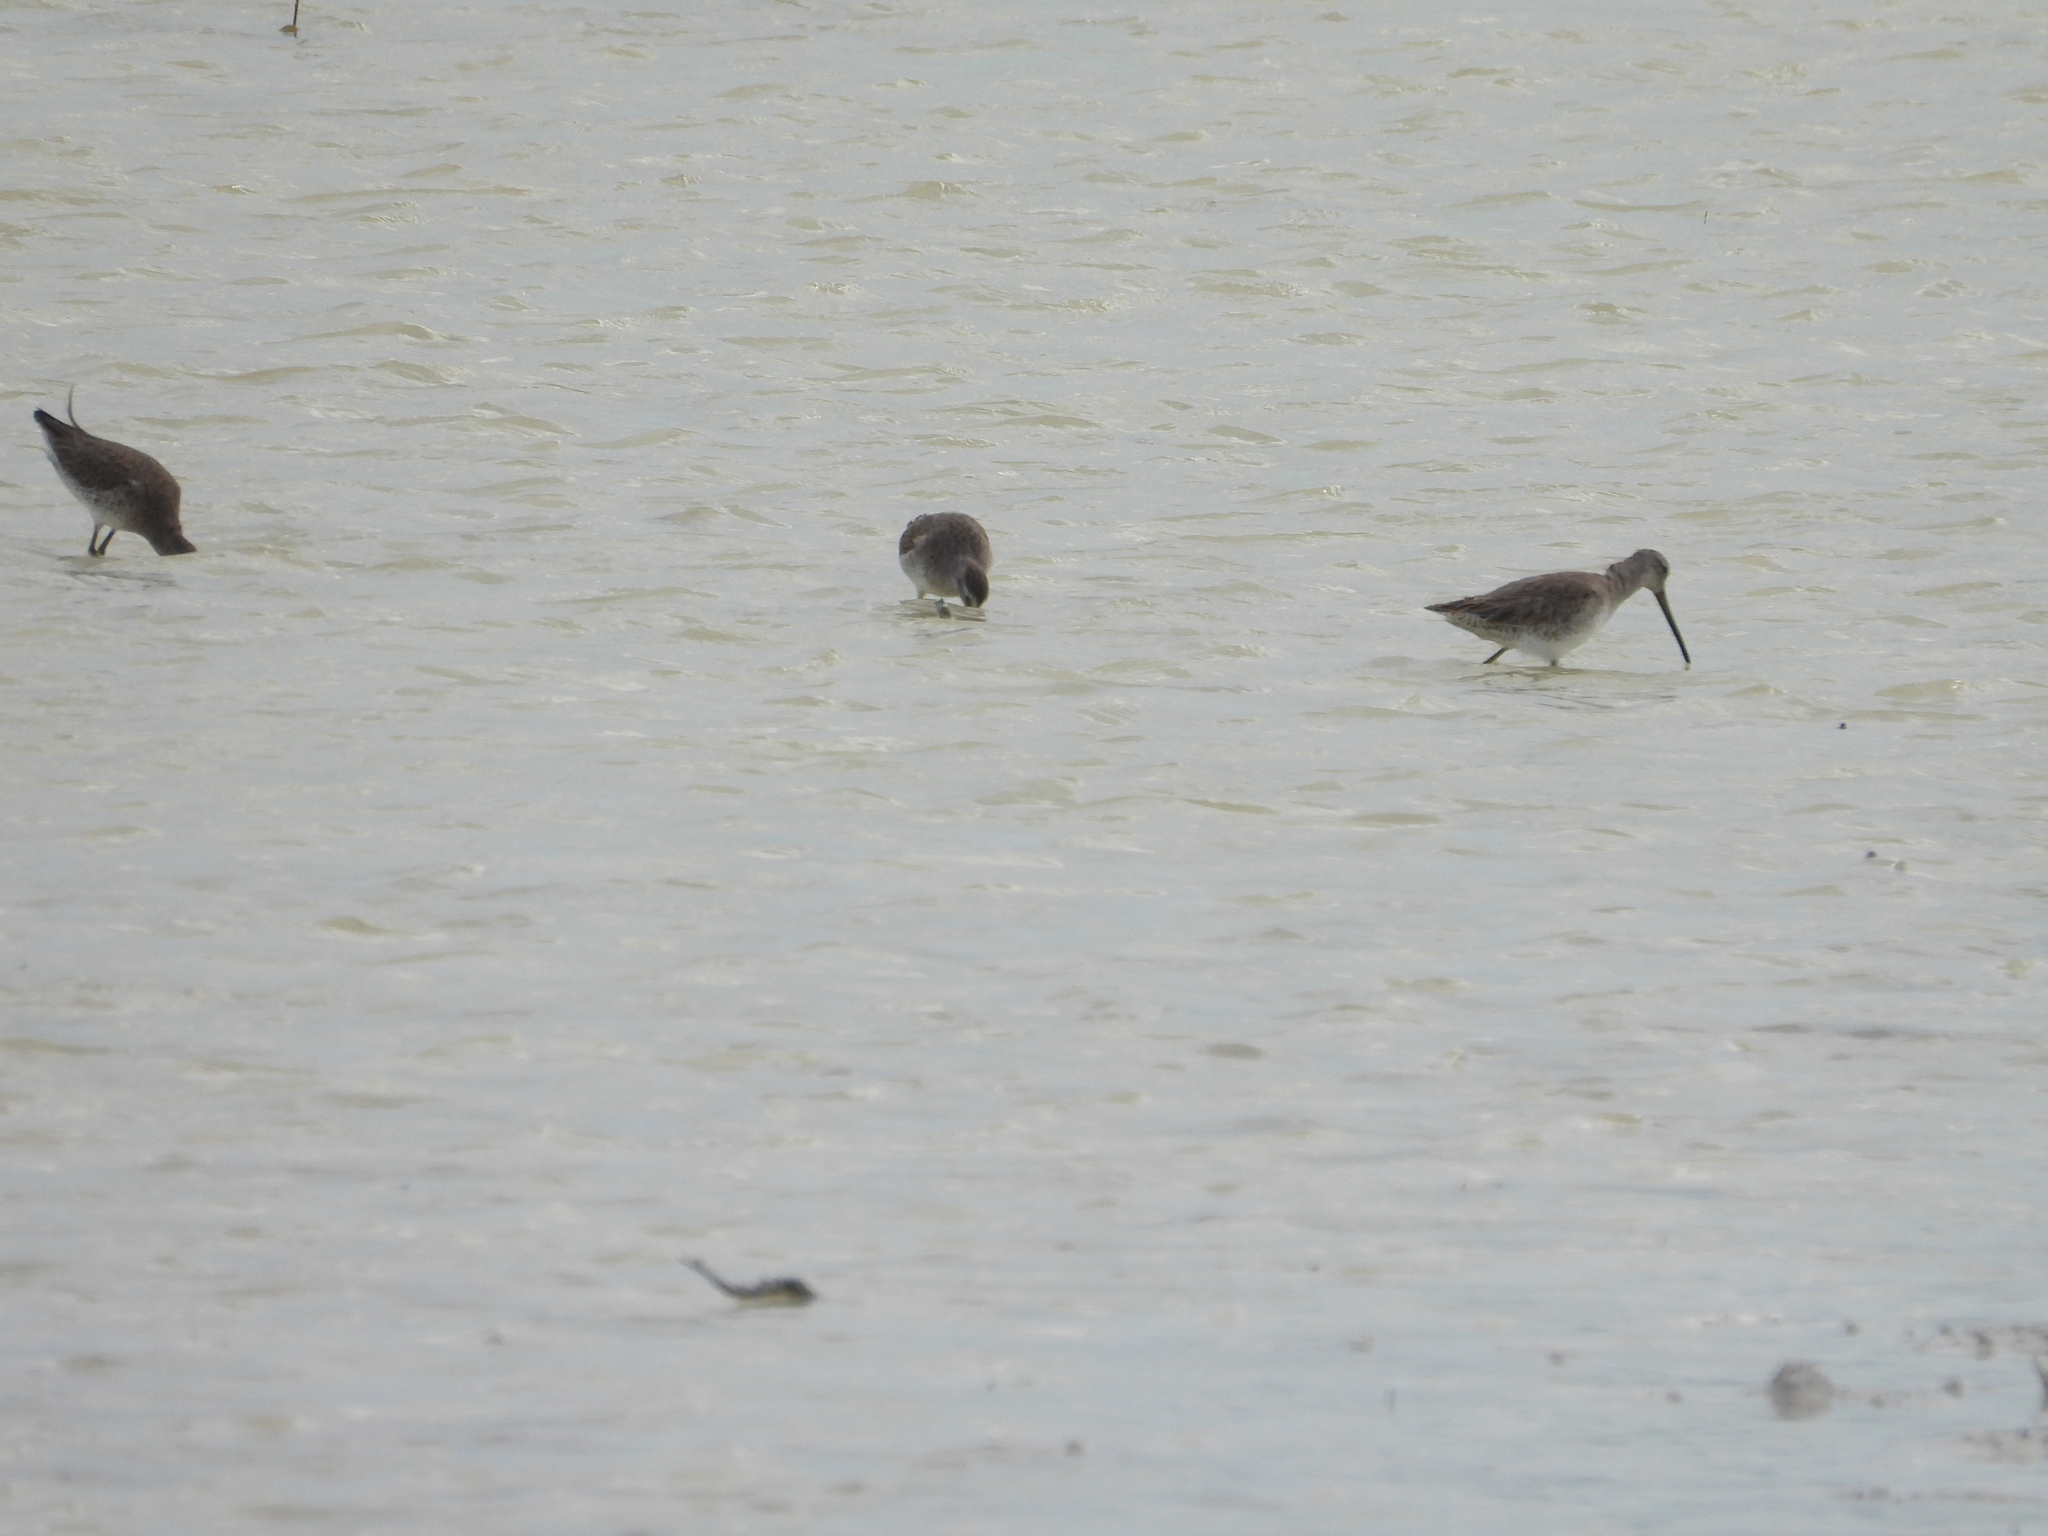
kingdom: Animalia
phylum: Chordata
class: Aves
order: Charadriiformes
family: Scolopacidae
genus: Limnodromus
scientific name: Limnodromus griseus
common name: Short-billed dowitcher
